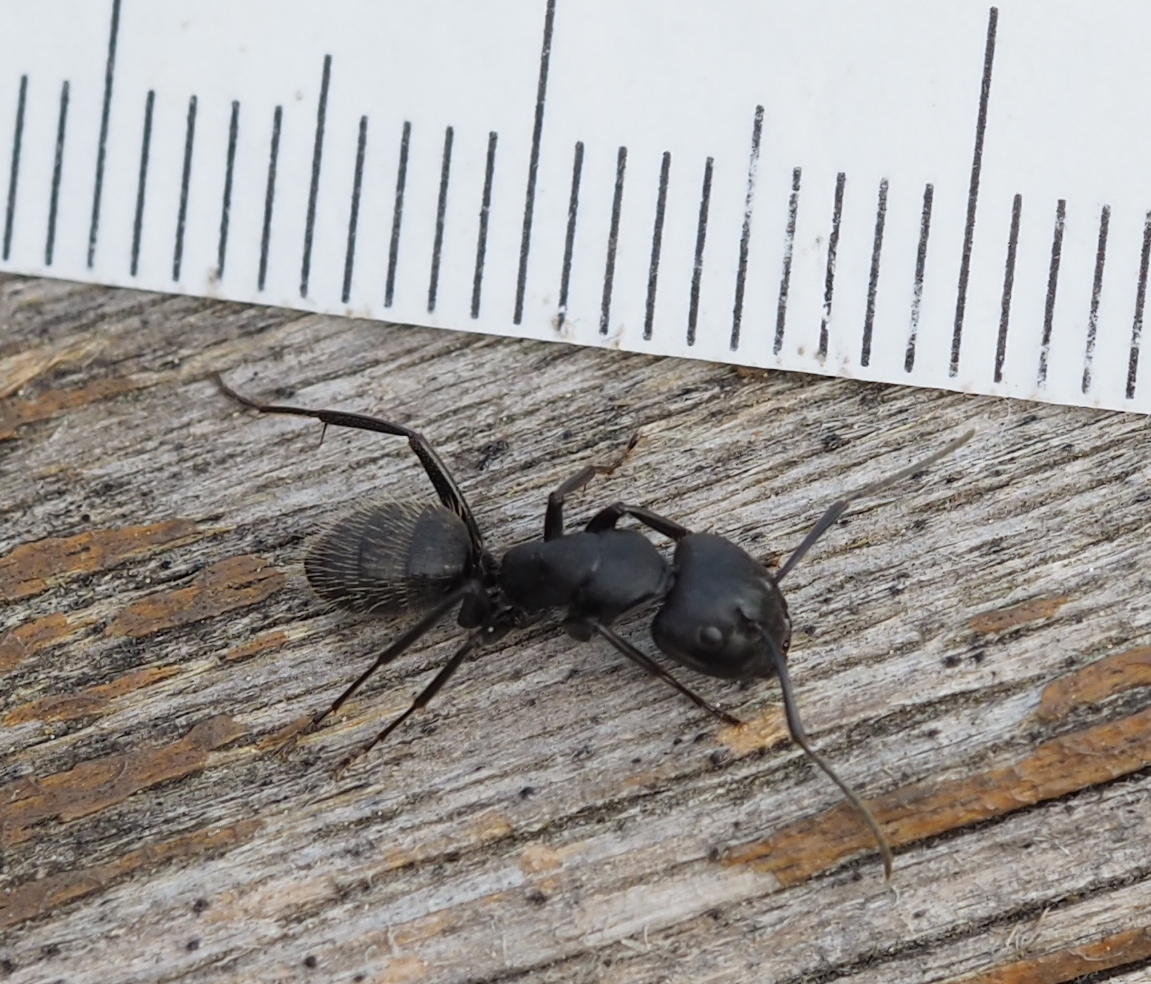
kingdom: Animalia
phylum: Arthropoda
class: Insecta
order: Hymenoptera
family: Formicidae
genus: Camponotus
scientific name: Camponotus vagus
